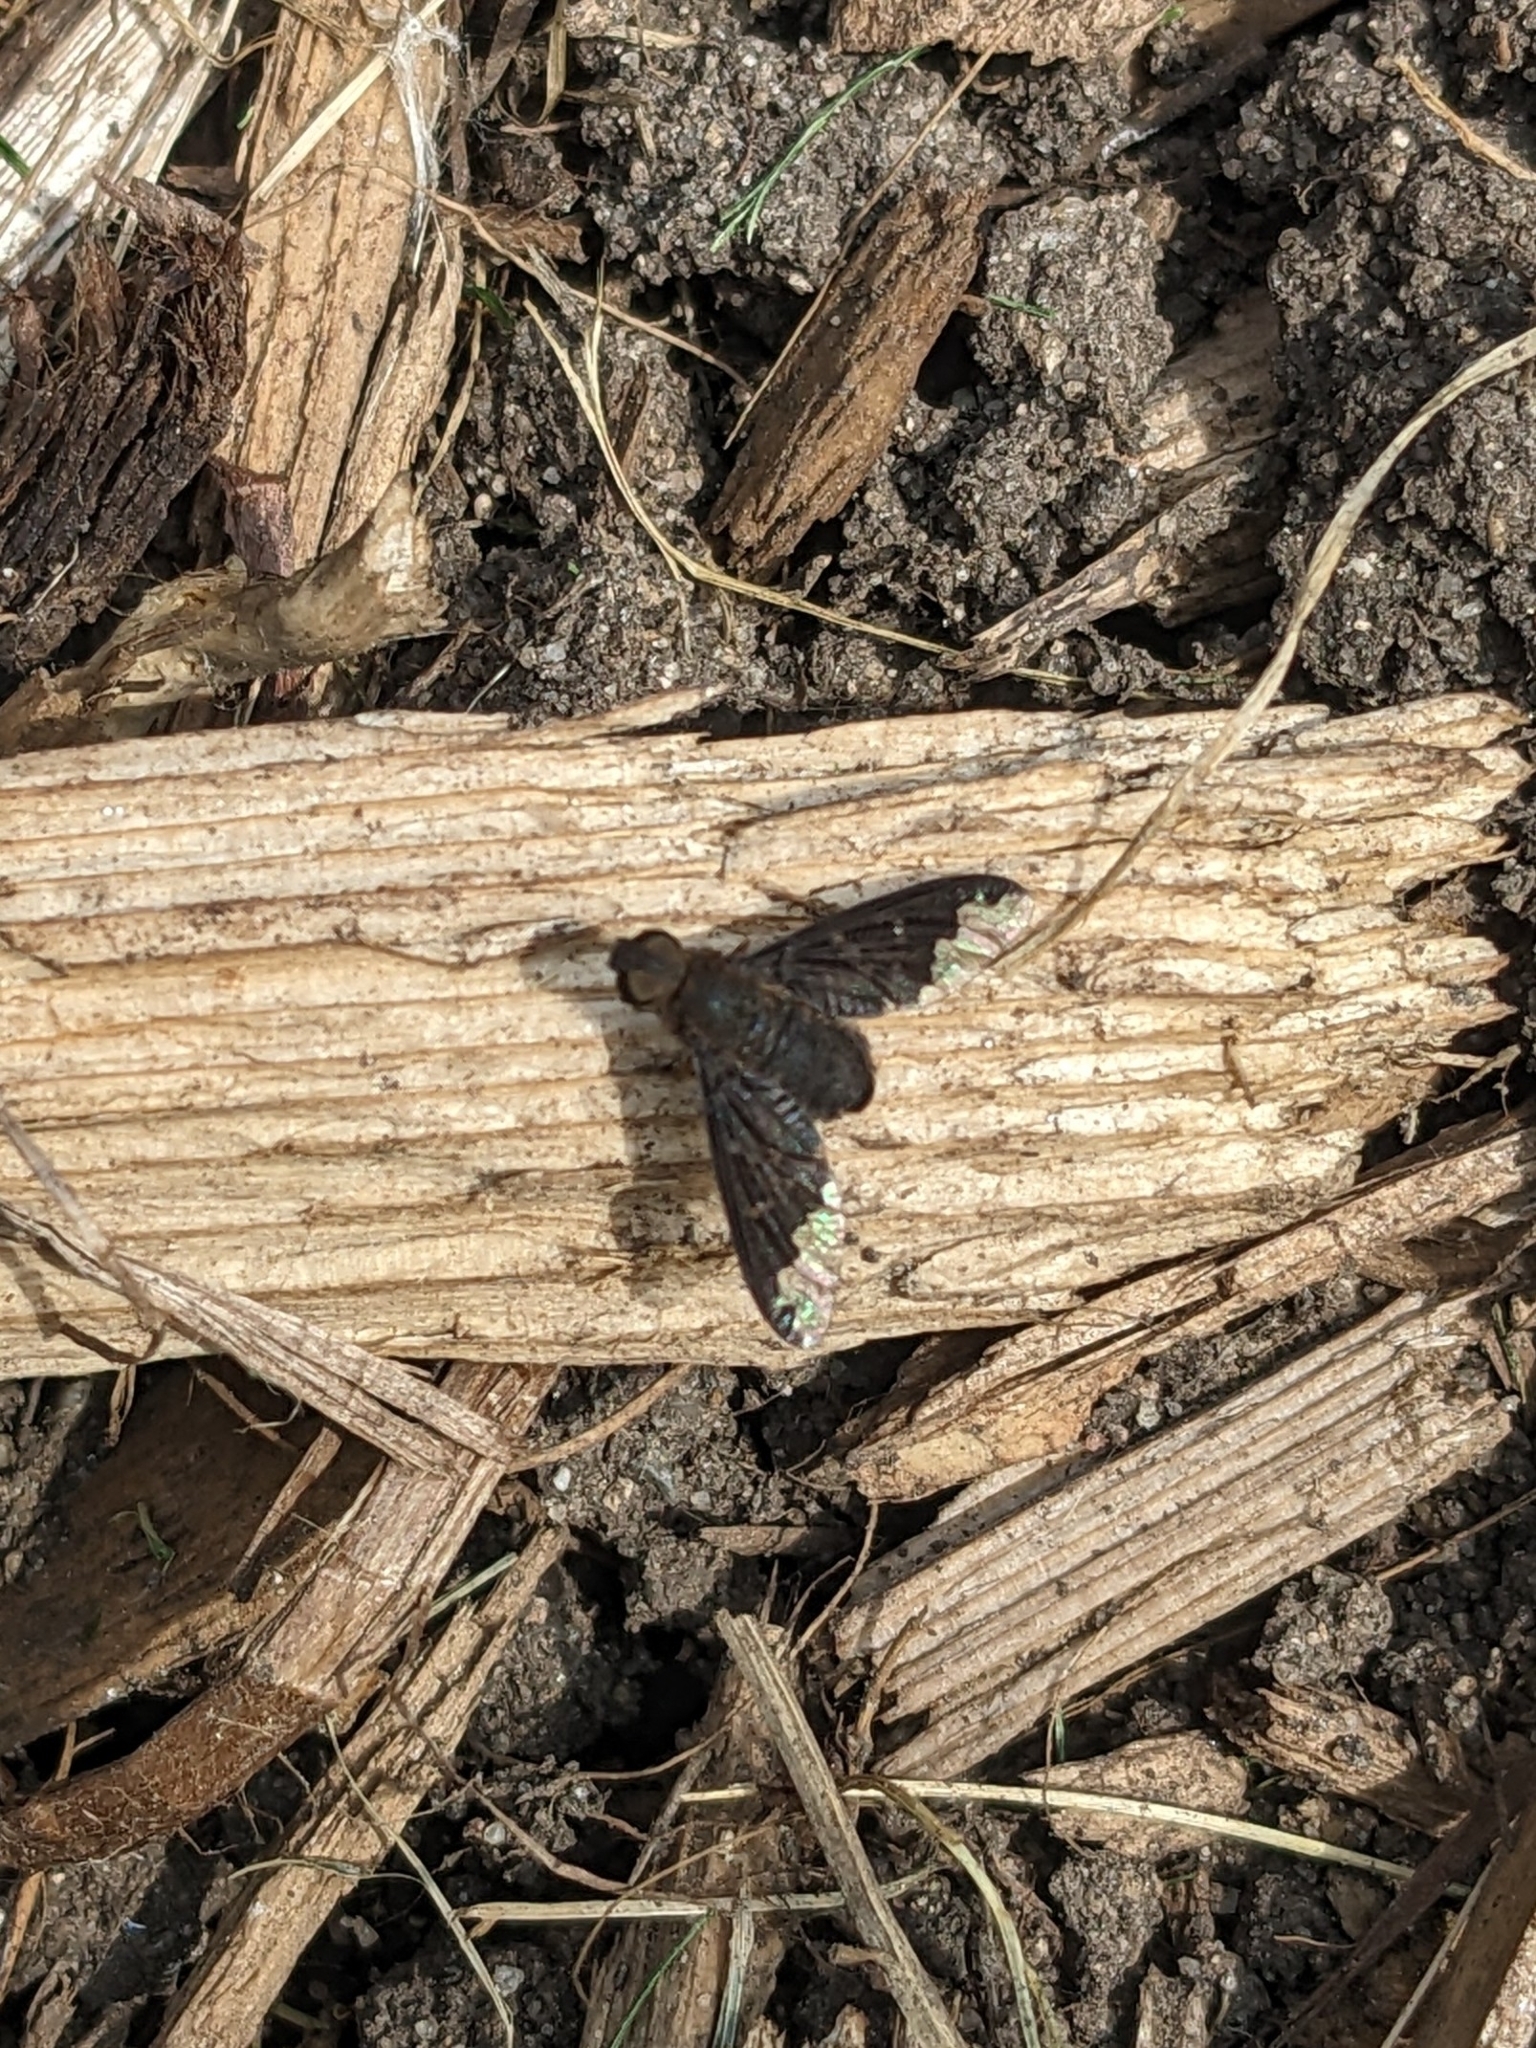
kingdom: Animalia
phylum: Arthropoda
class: Insecta
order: Diptera
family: Bombyliidae
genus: Hemipenthes
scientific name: Hemipenthes sinuosus
